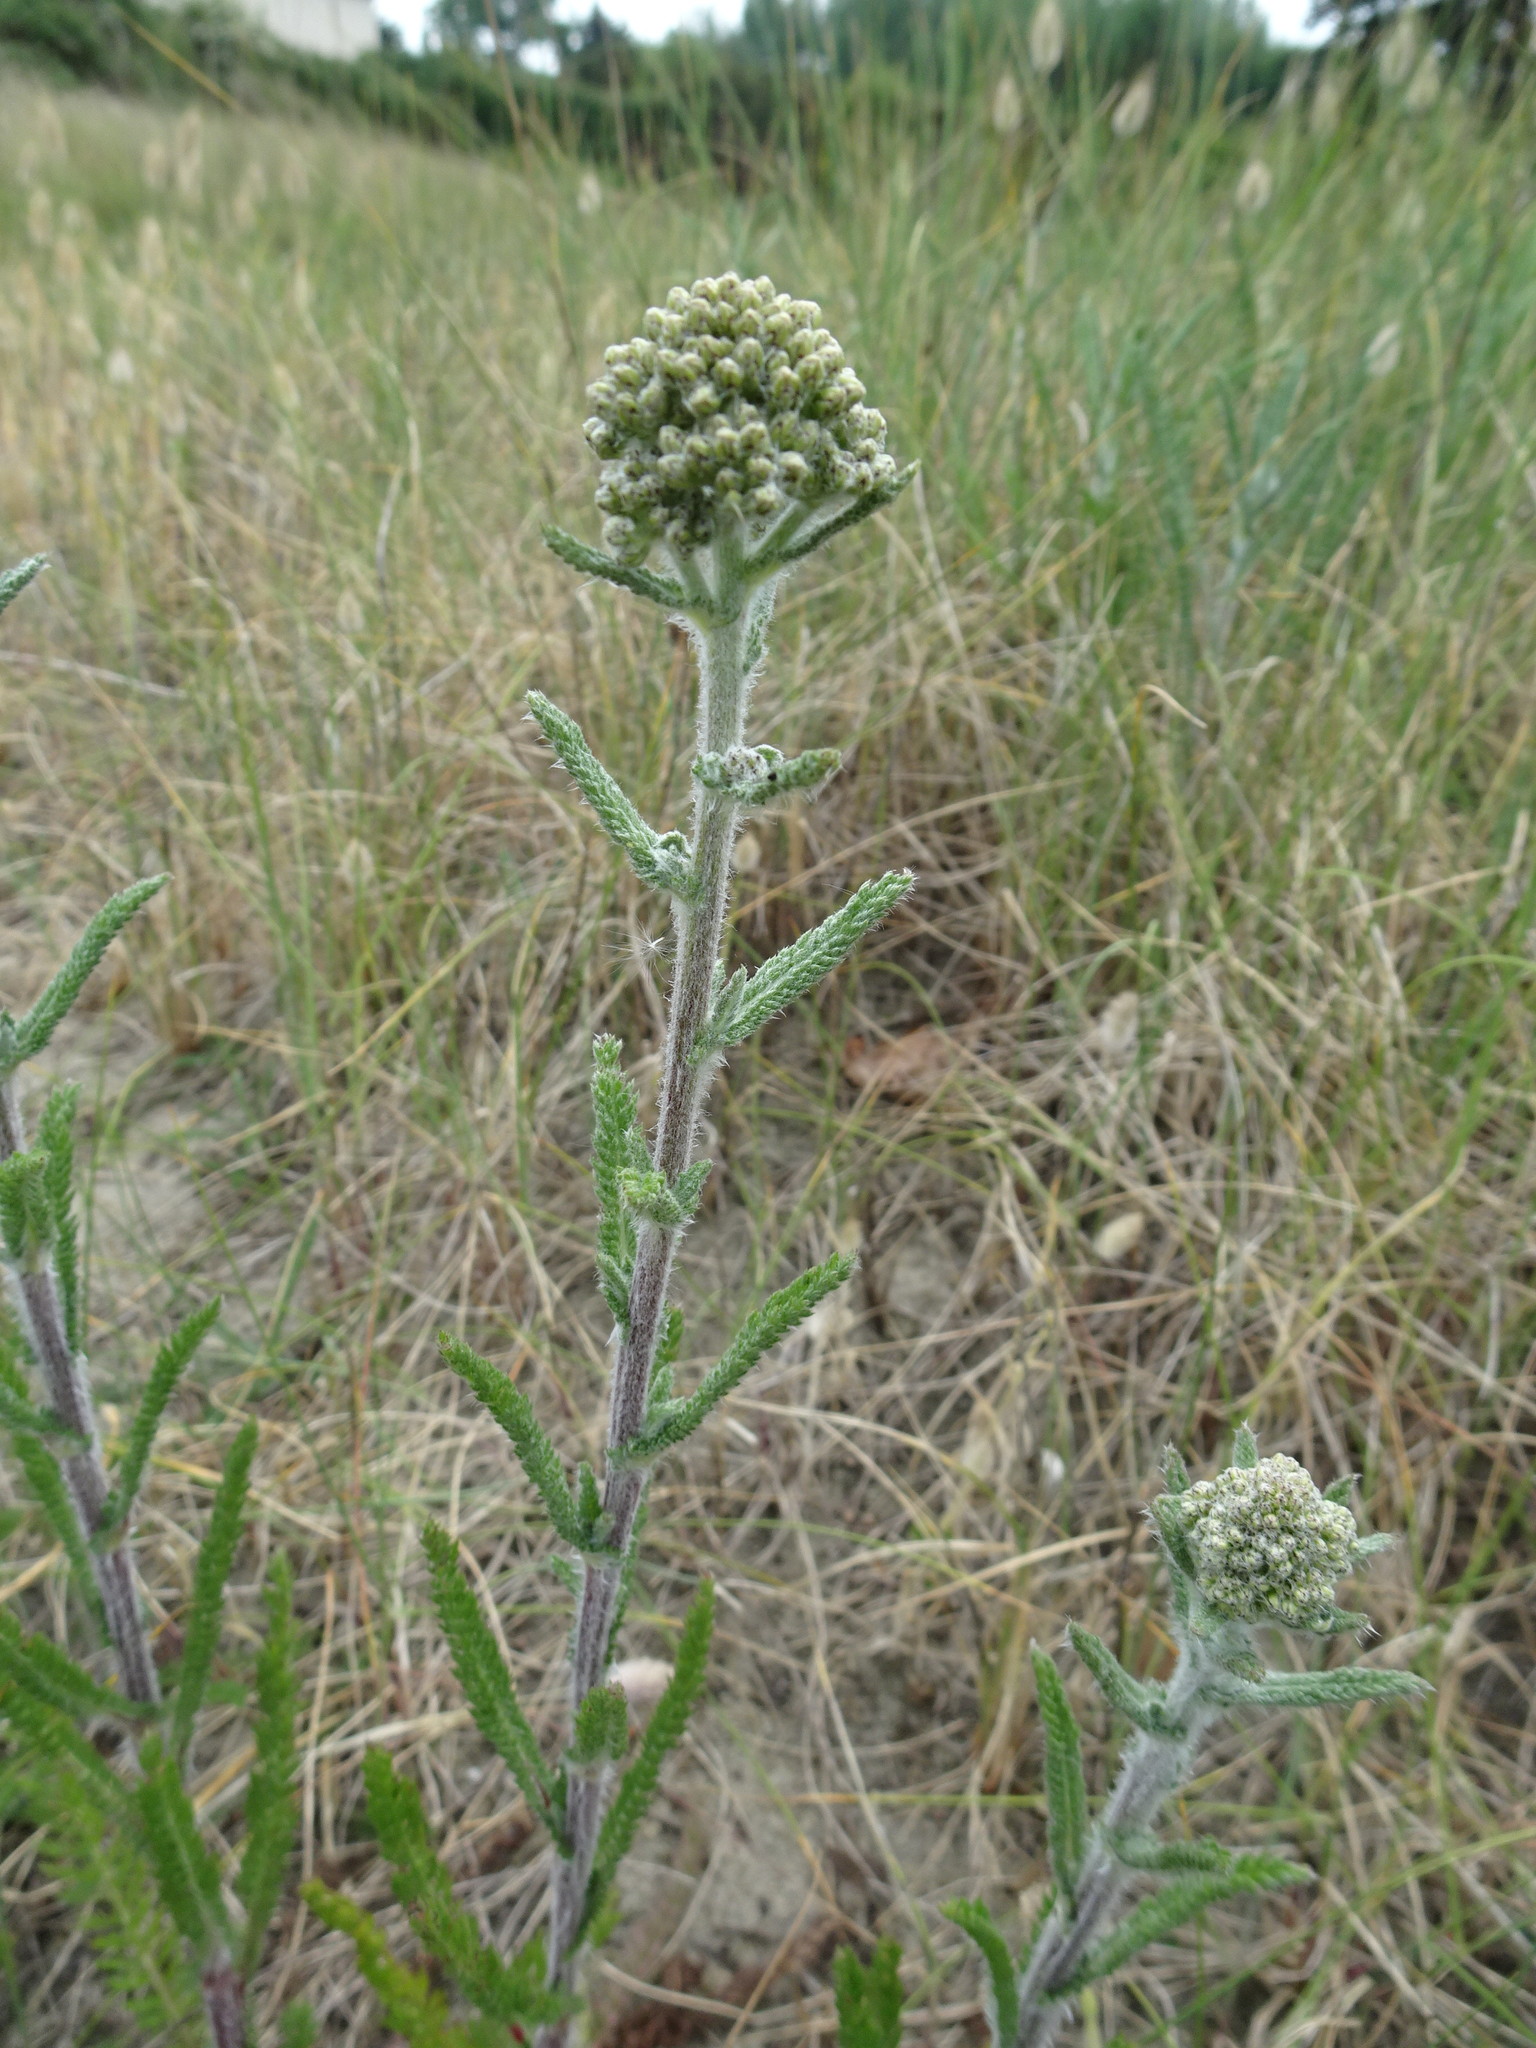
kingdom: Plantae
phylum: Tracheophyta
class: Magnoliopsida
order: Asterales
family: Asteraceae
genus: Achillea
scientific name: Achillea millefolium
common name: Yarrow
